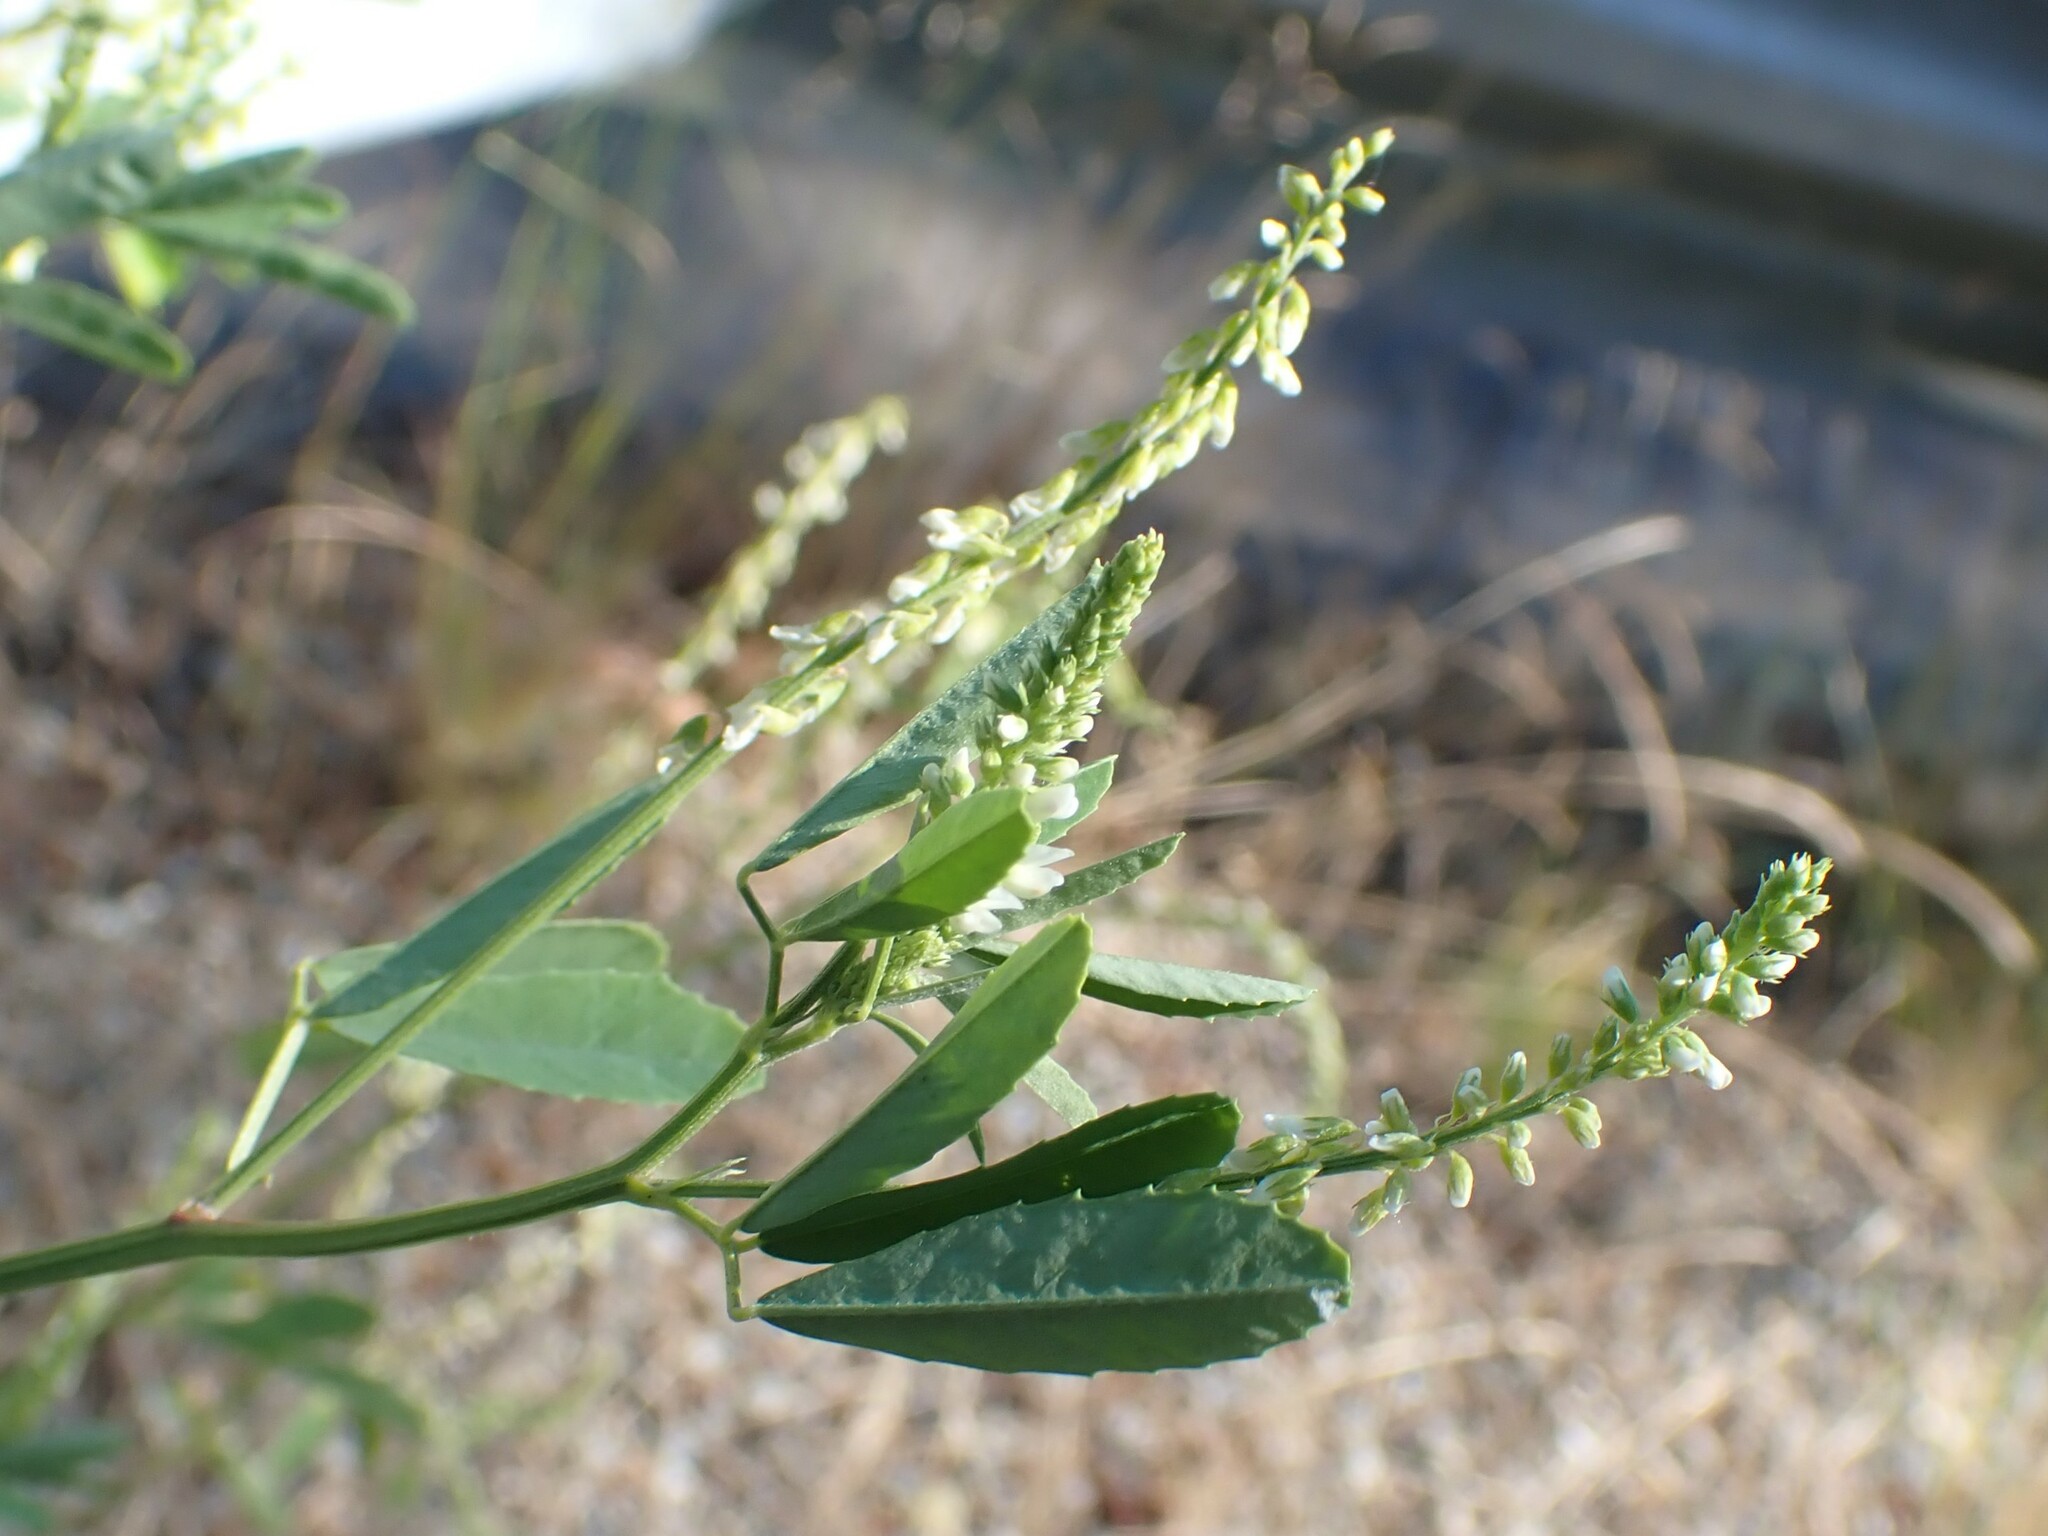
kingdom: Plantae
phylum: Tracheophyta
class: Magnoliopsida
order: Fabales
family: Fabaceae
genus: Melilotus
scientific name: Melilotus albus
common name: White melilot
